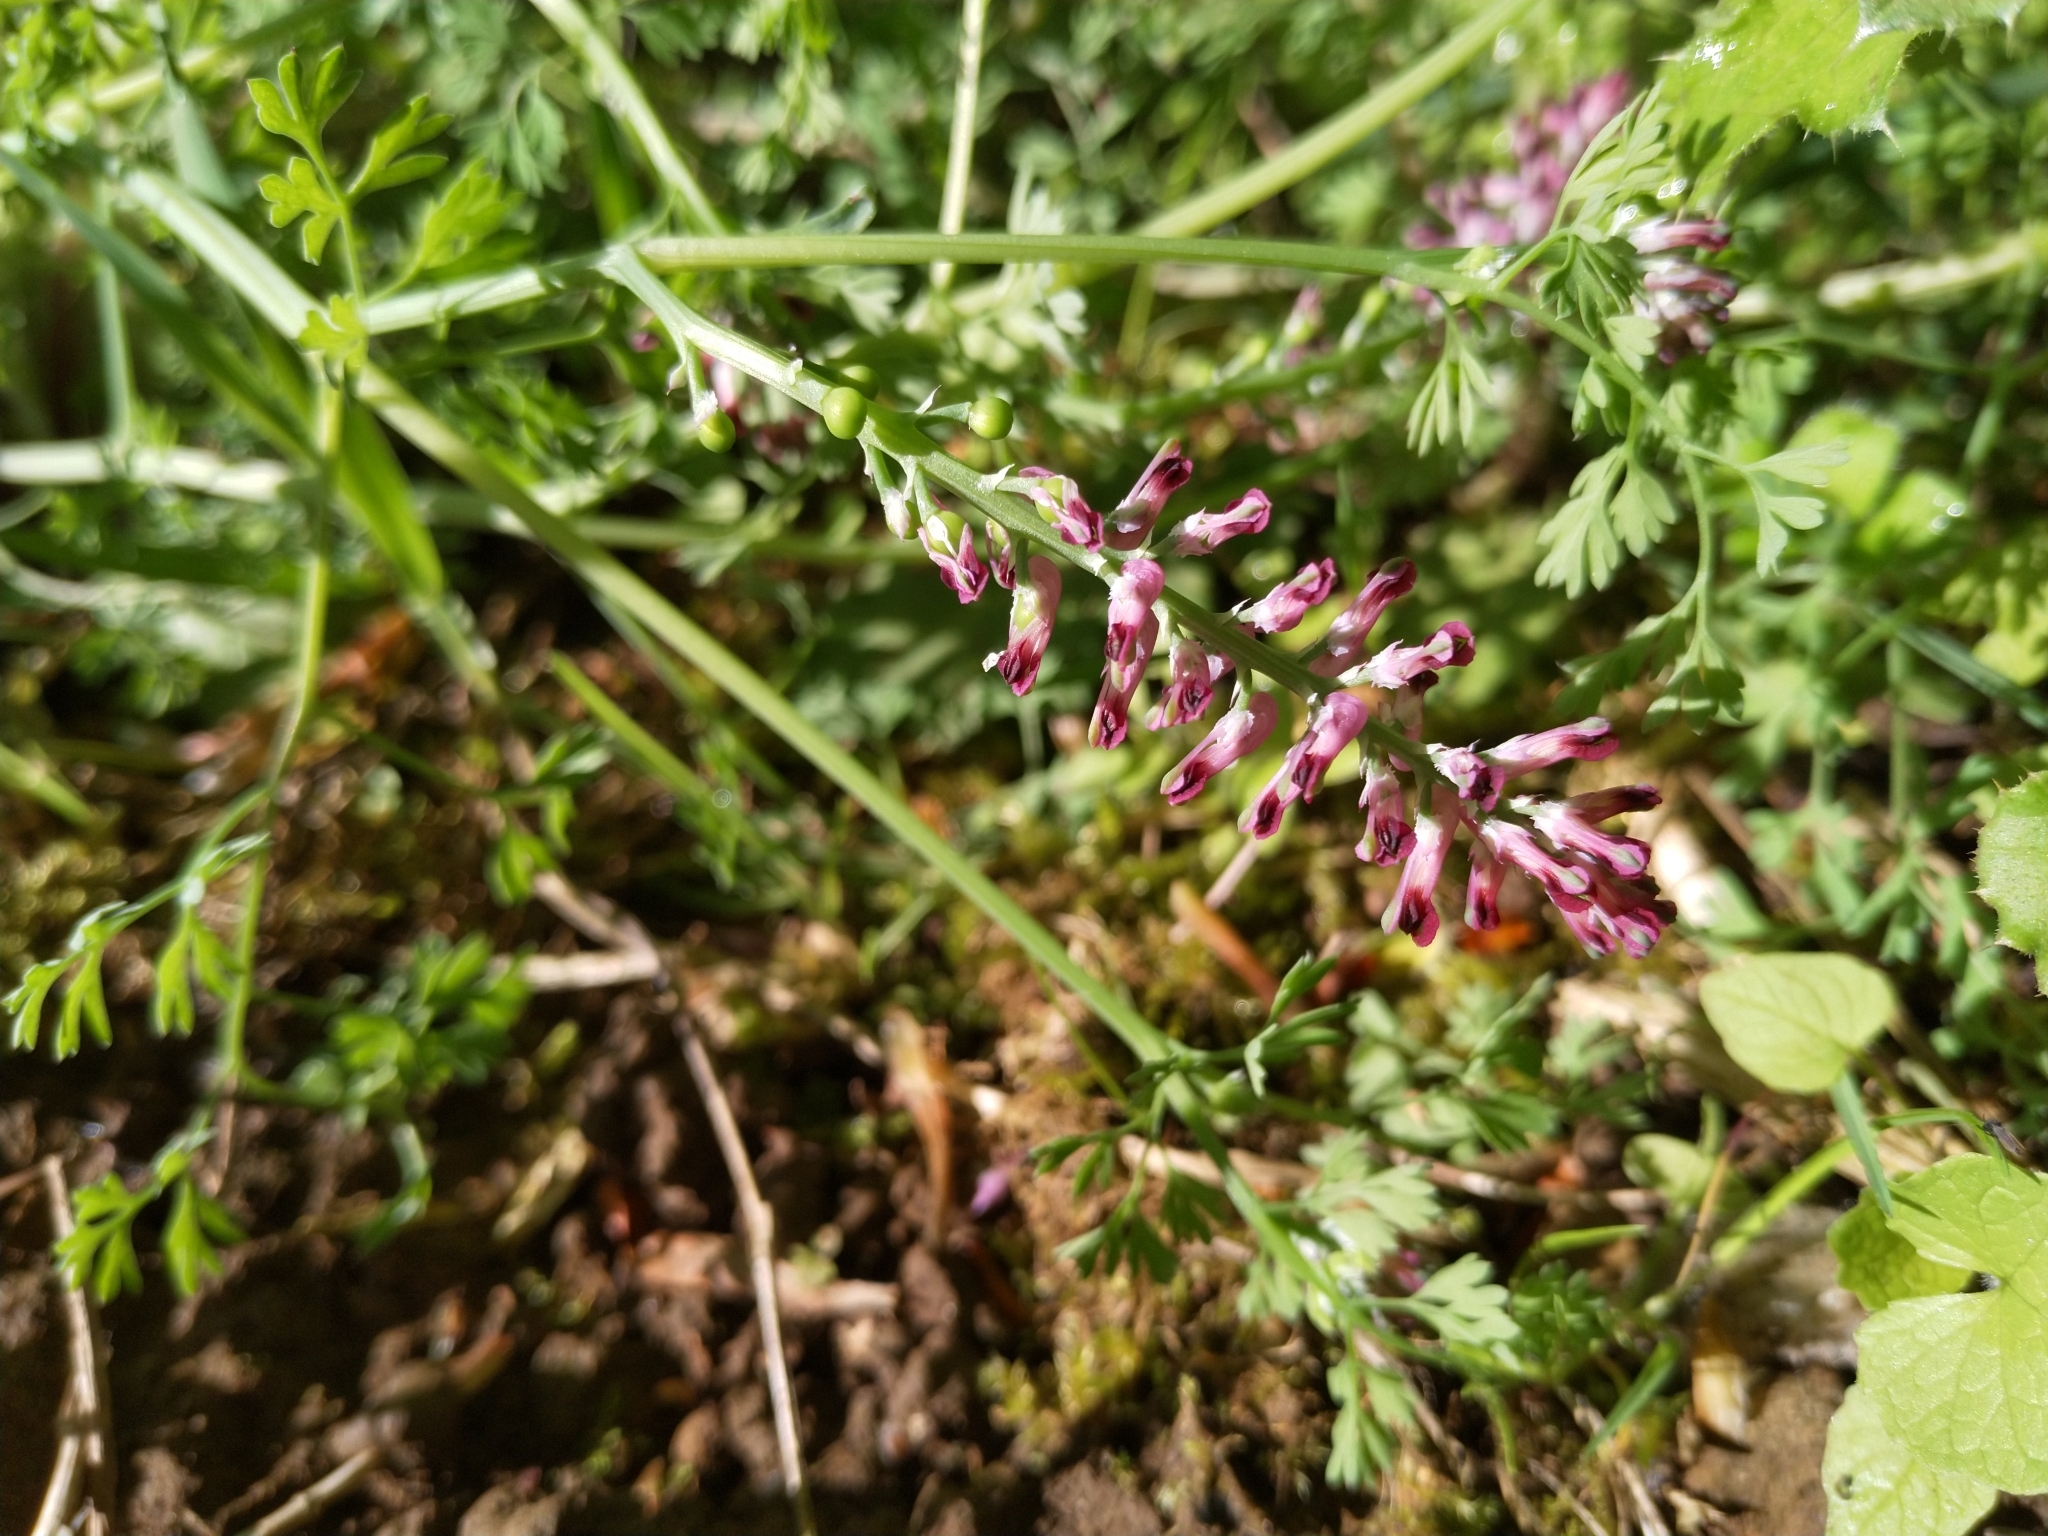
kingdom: Plantae
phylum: Tracheophyta
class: Magnoliopsida
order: Ranunculales
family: Papaveraceae
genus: Fumaria
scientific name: Fumaria officinalis
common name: Common fumitory
